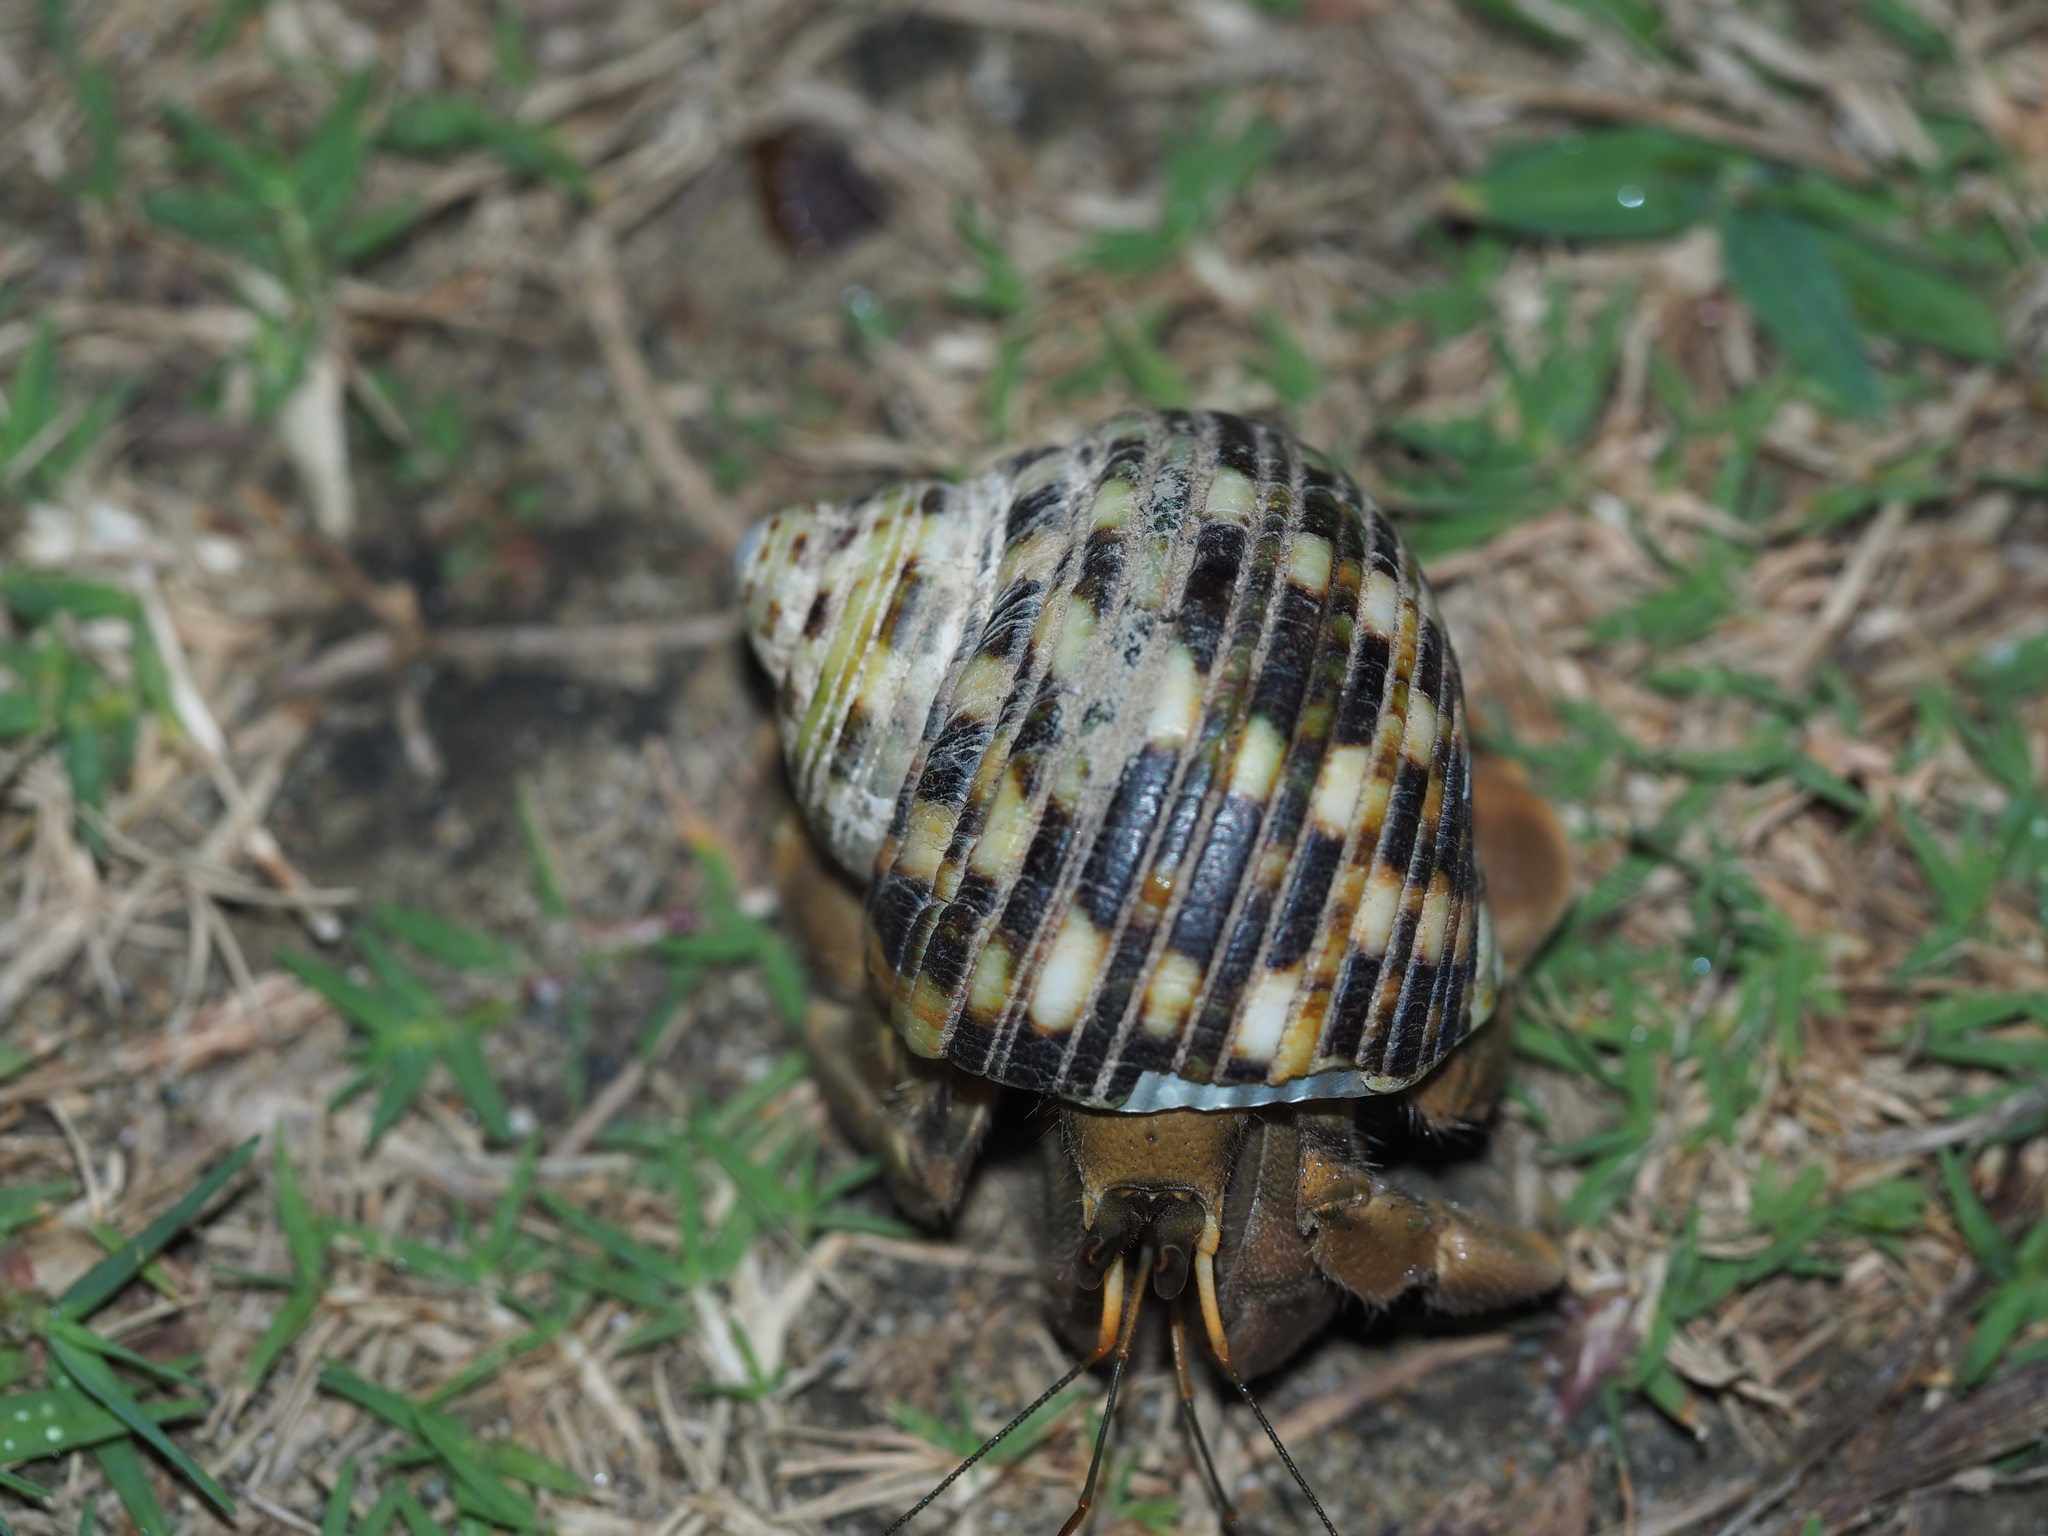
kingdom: Animalia
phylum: Arthropoda
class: Malacostraca
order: Decapoda
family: Coenobitidae
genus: Coenobita
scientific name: Coenobita rugosus
